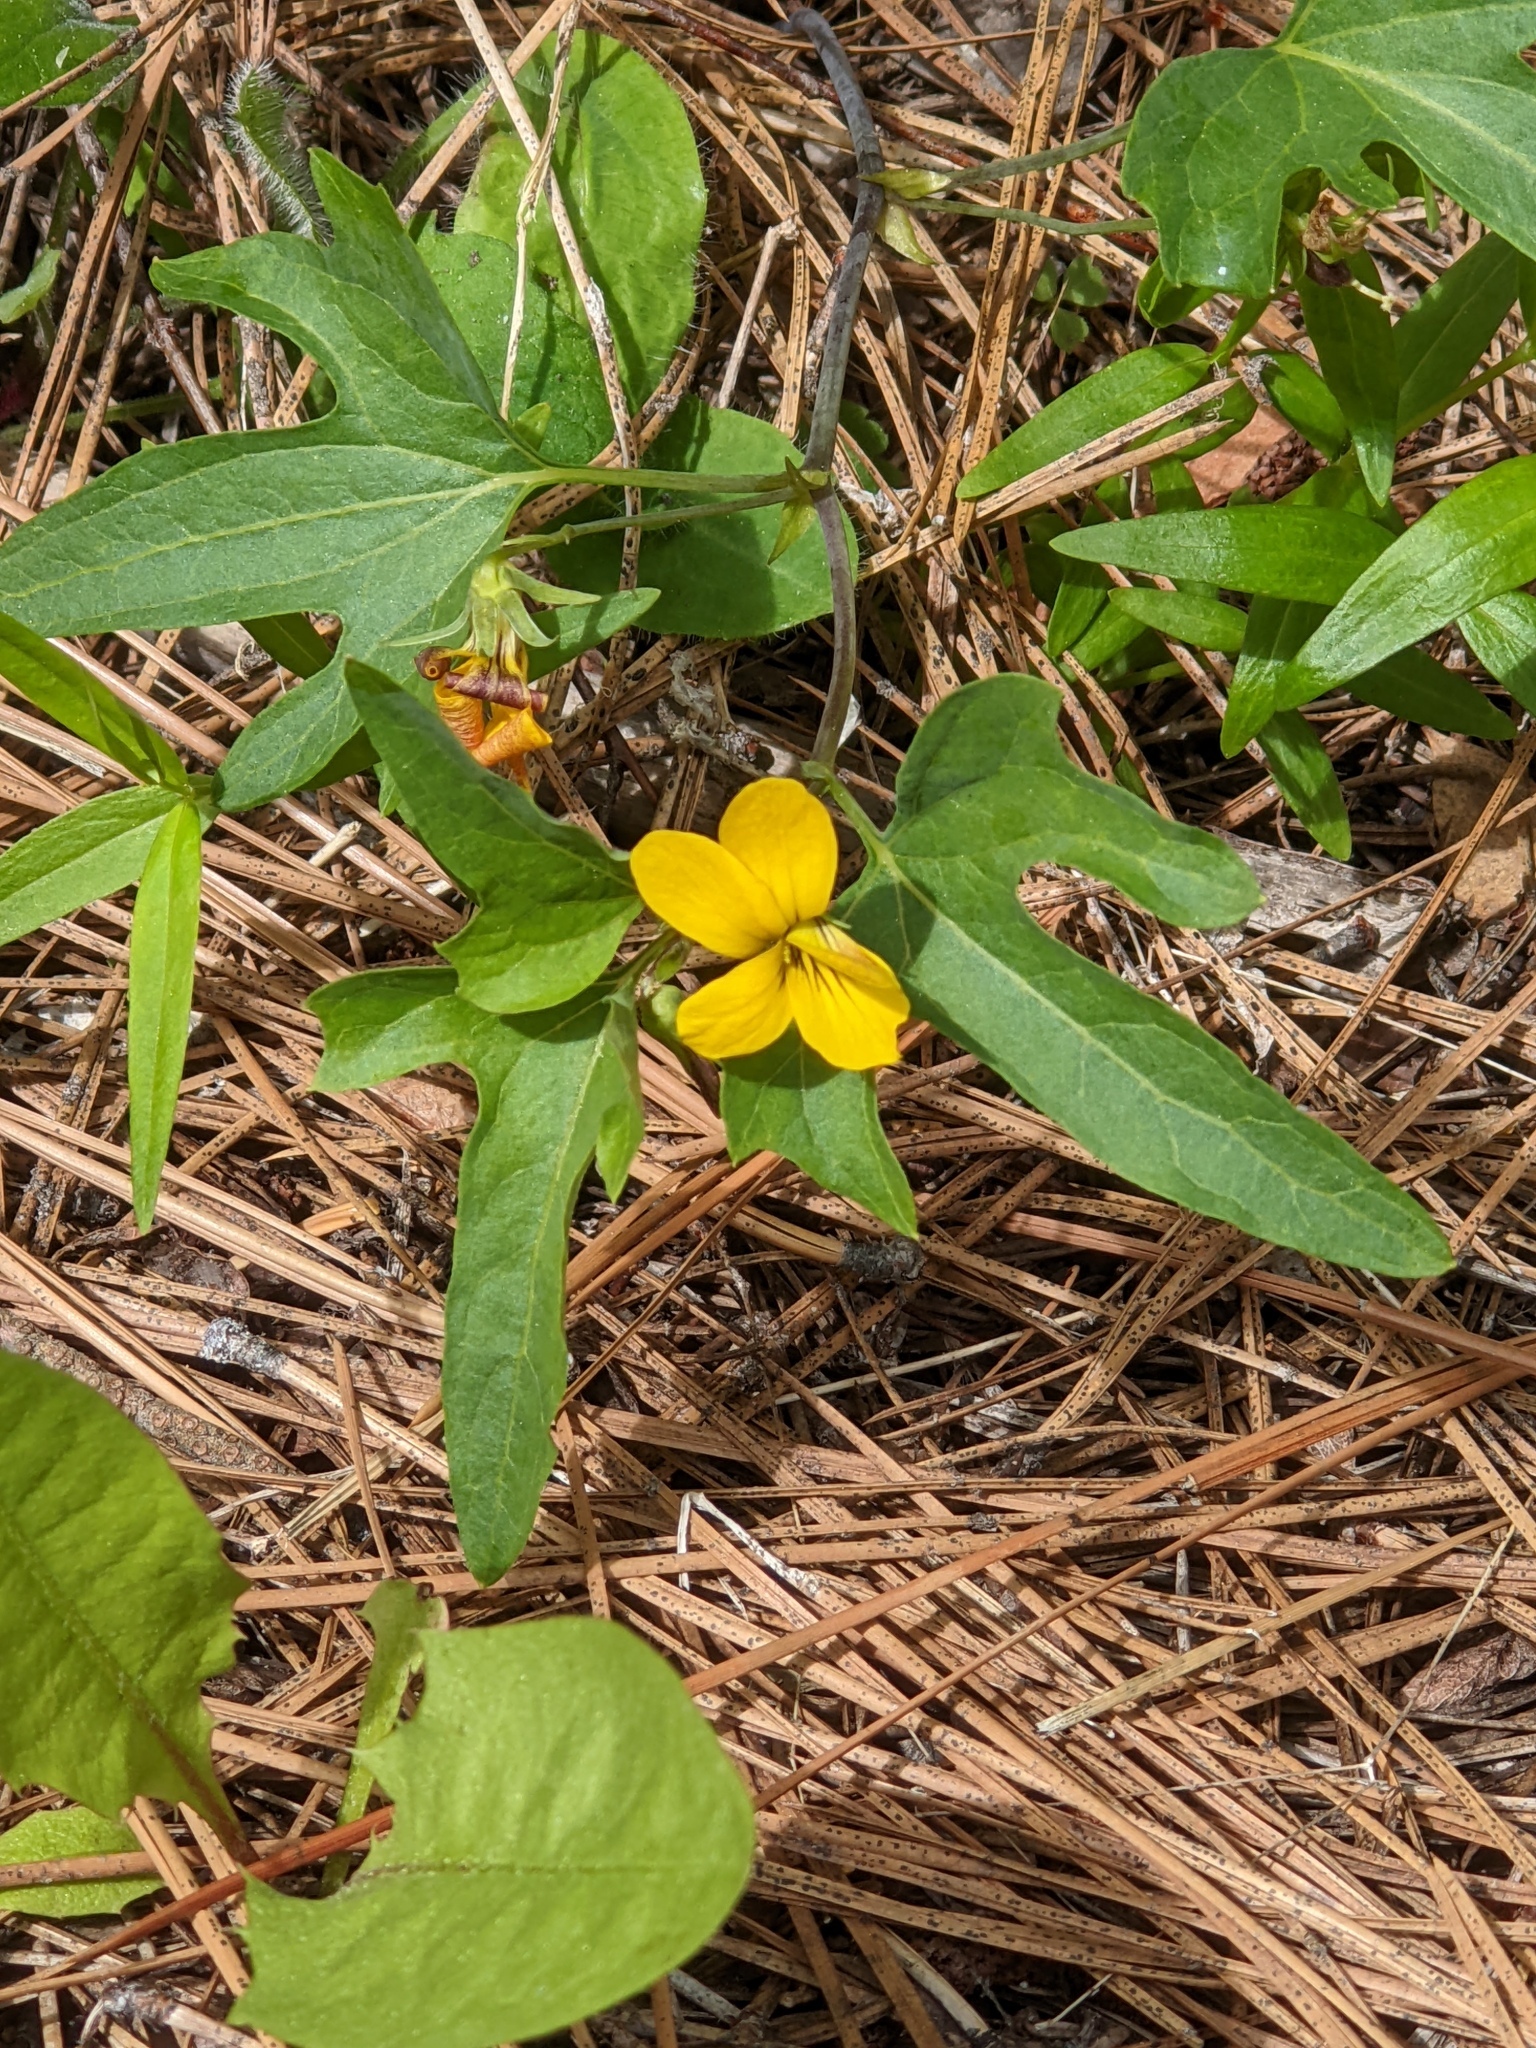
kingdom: Plantae
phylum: Tracheophyta
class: Magnoliopsida
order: Malpighiales
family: Violaceae
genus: Viola
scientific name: Viola lobata
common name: Pine violet
